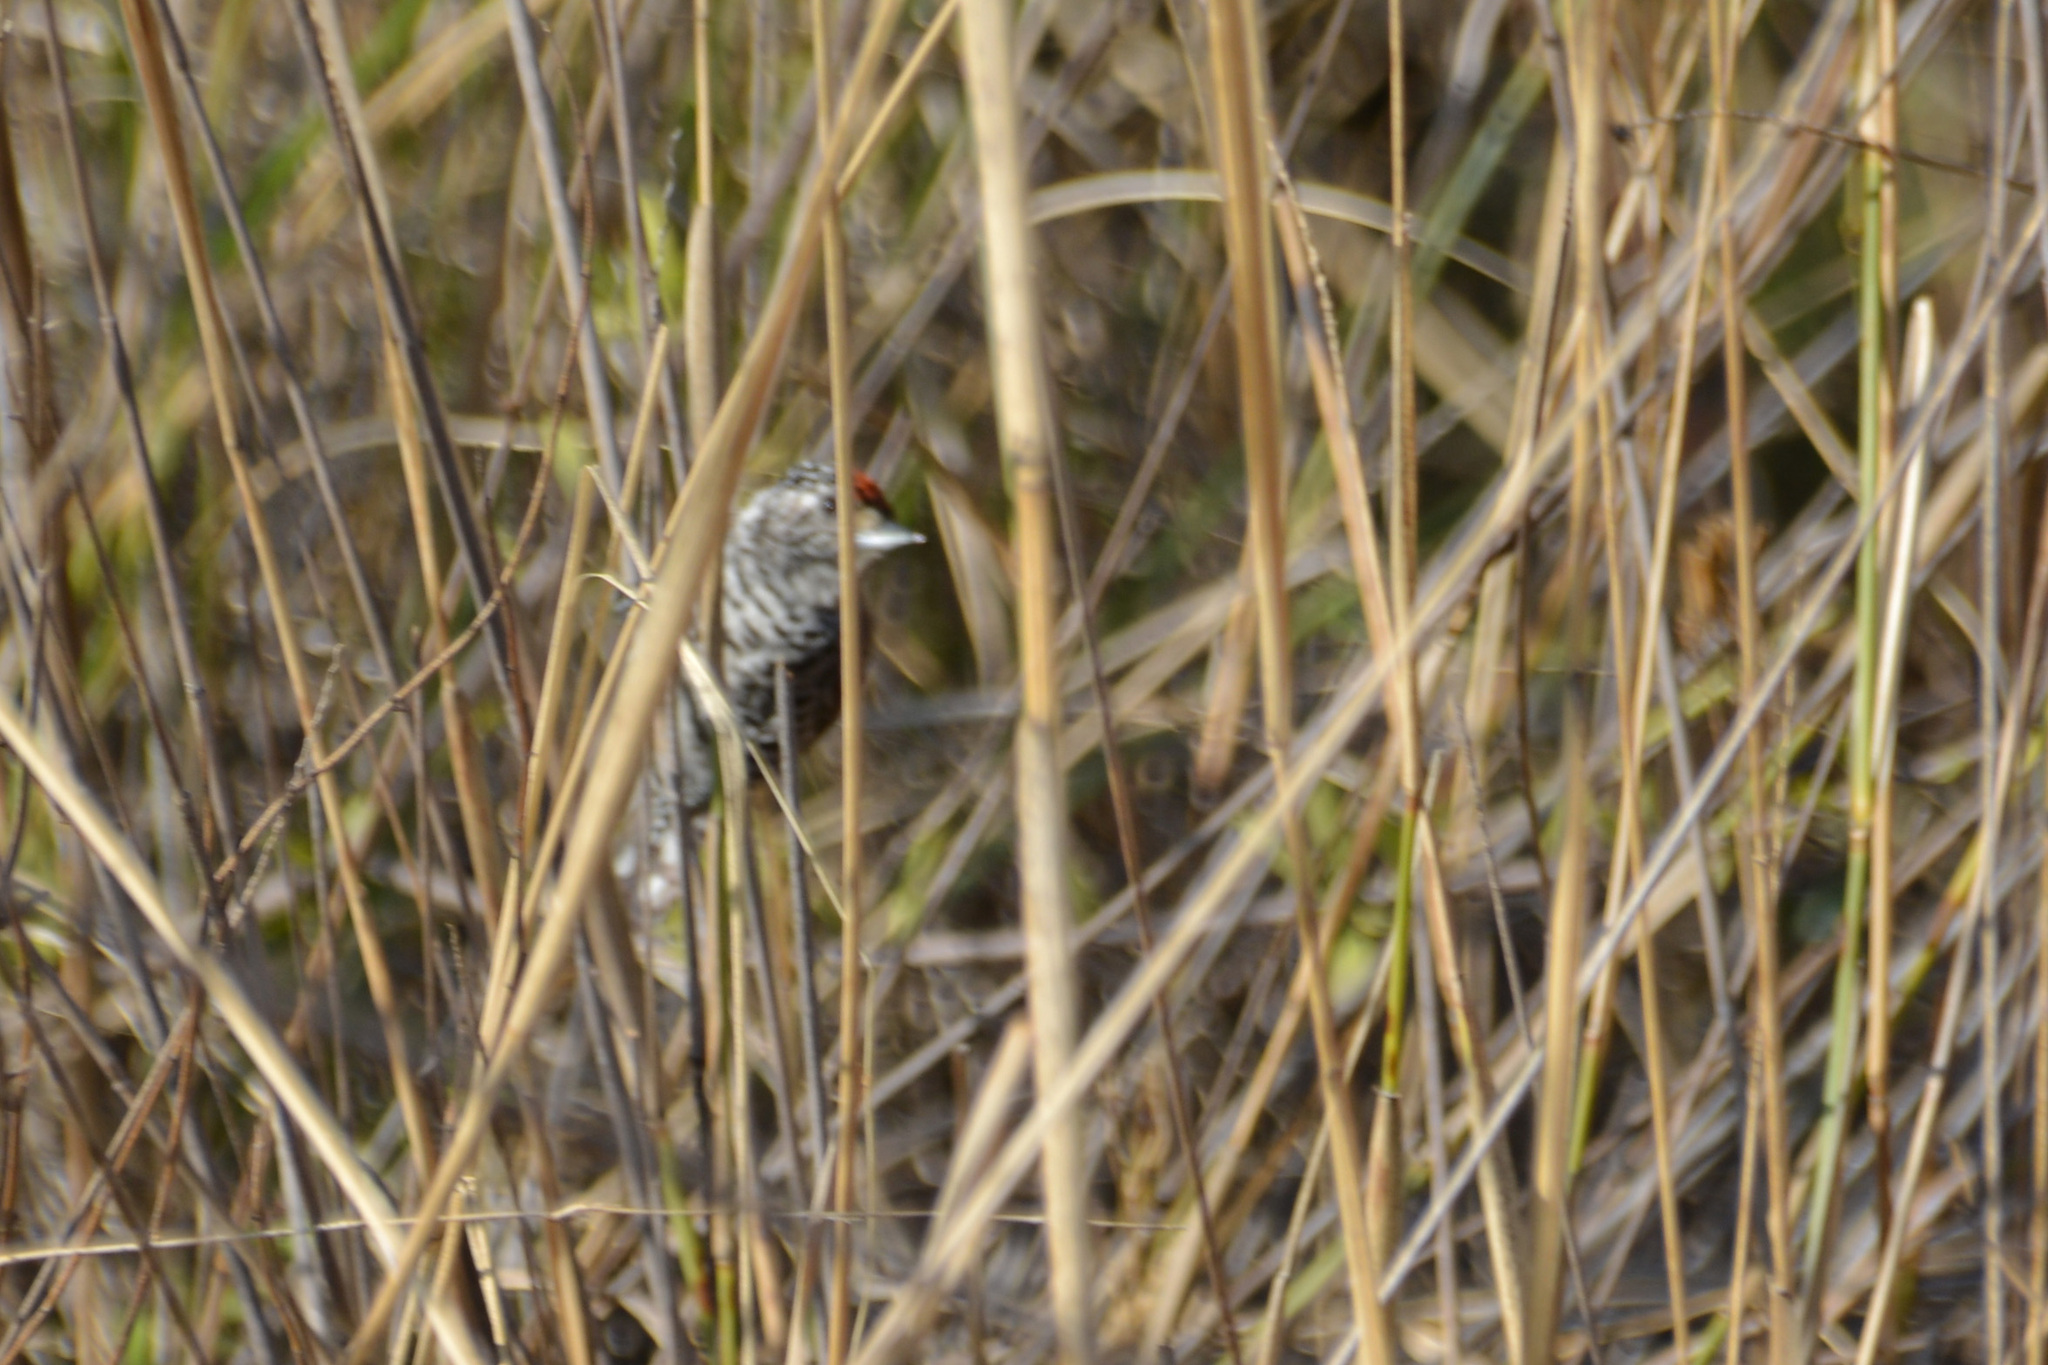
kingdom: Animalia
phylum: Chordata
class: Aves
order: Piciformes
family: Picidae
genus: Picumnus
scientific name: Picumnus cirratus
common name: White-barred piculet
